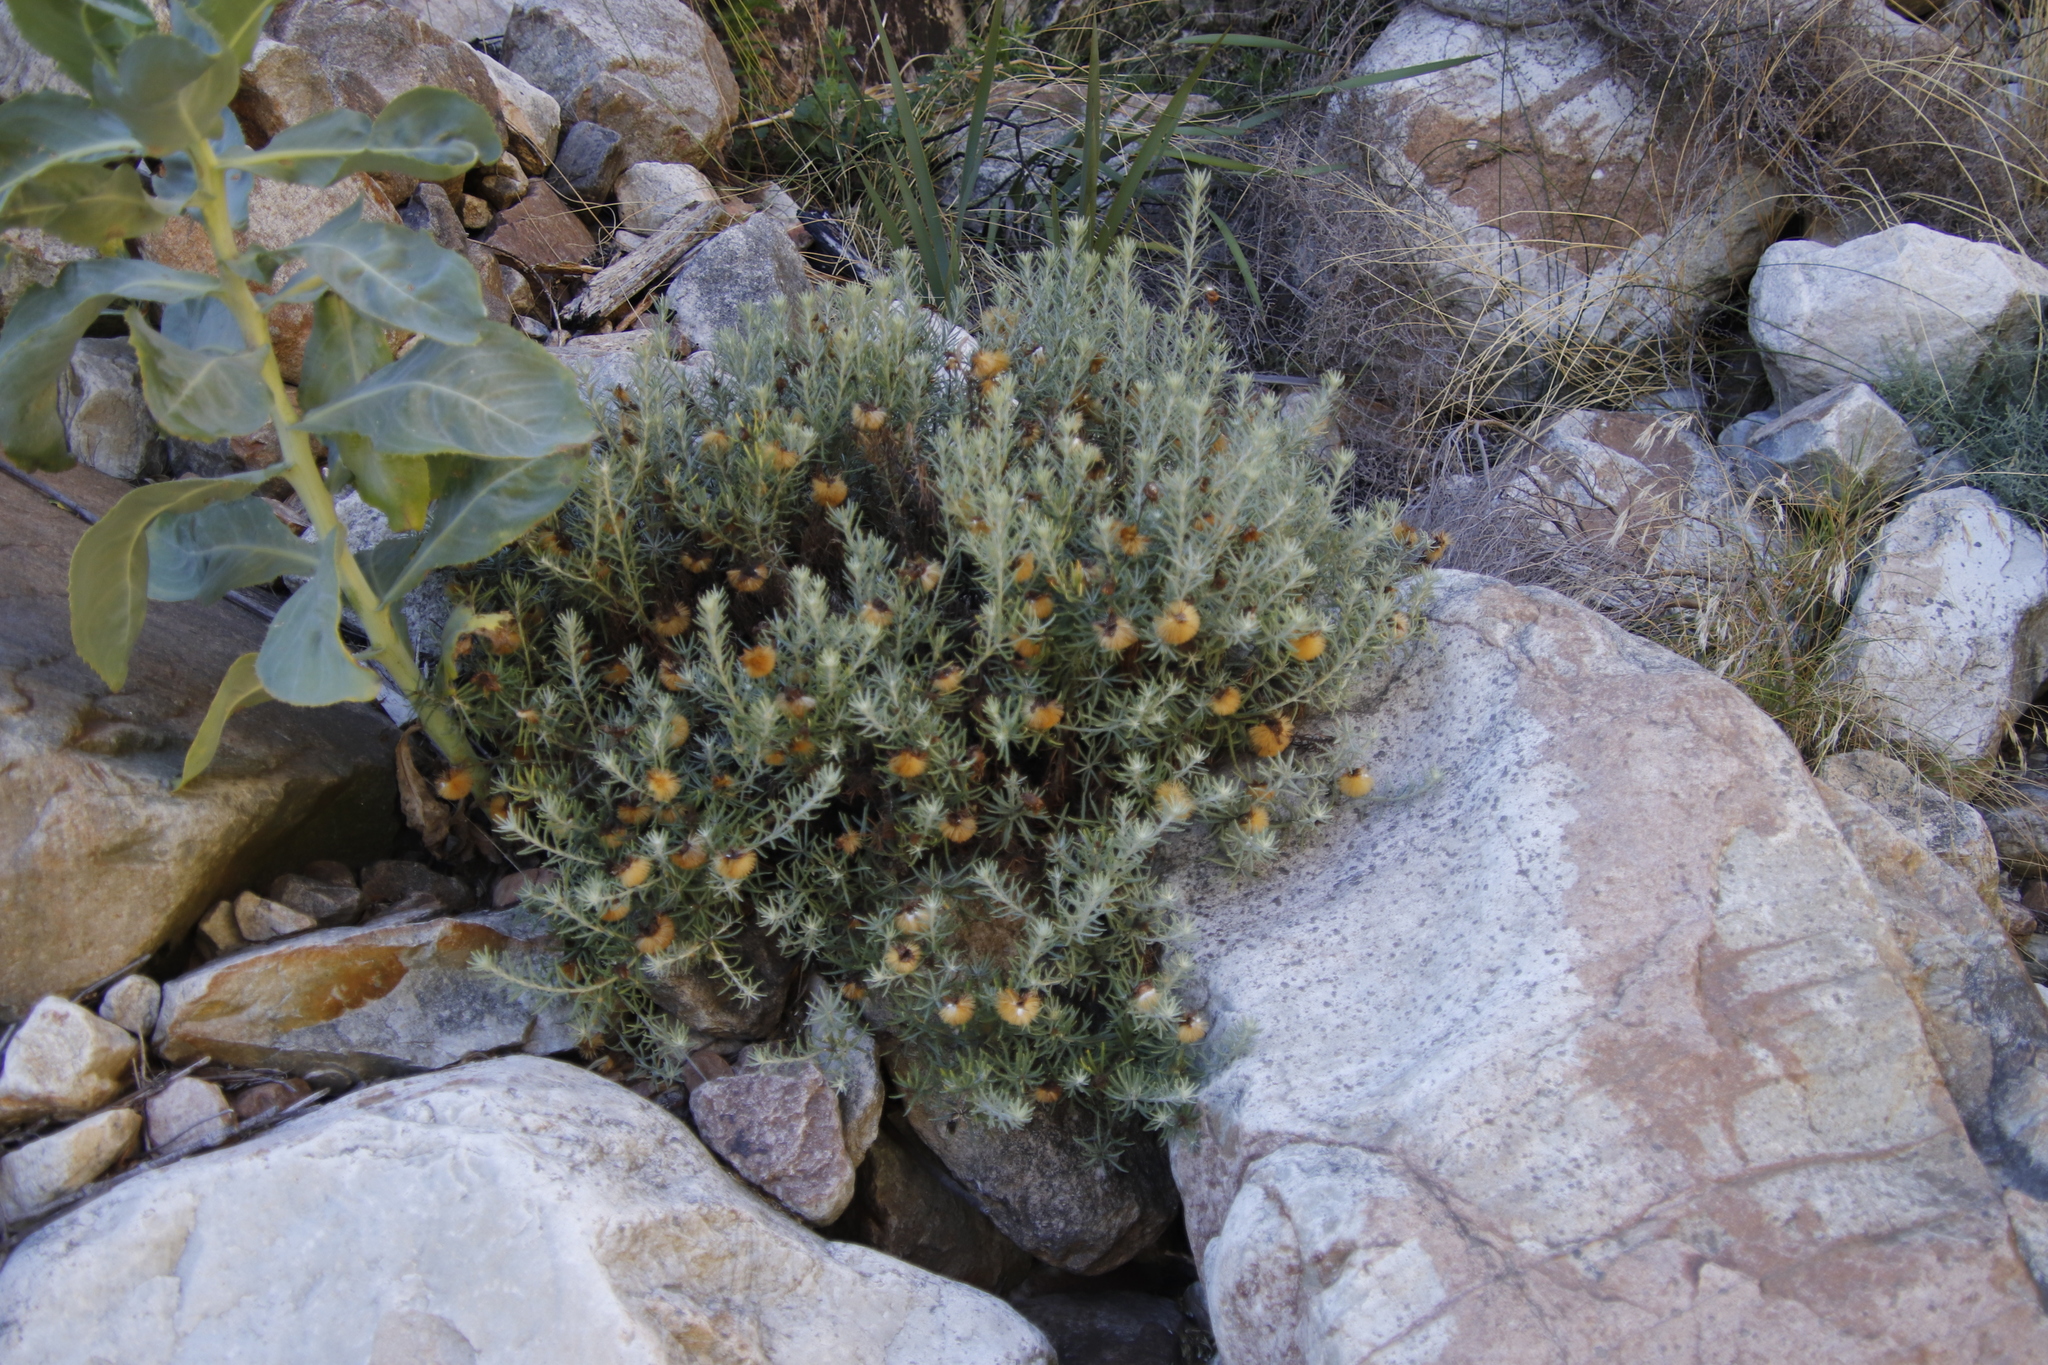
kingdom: Plantae
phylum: Tracheophyta
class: Magnoliopsida
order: Asterales
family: Asteraceae
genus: Heterolepis
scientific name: Heterolepis aliena
